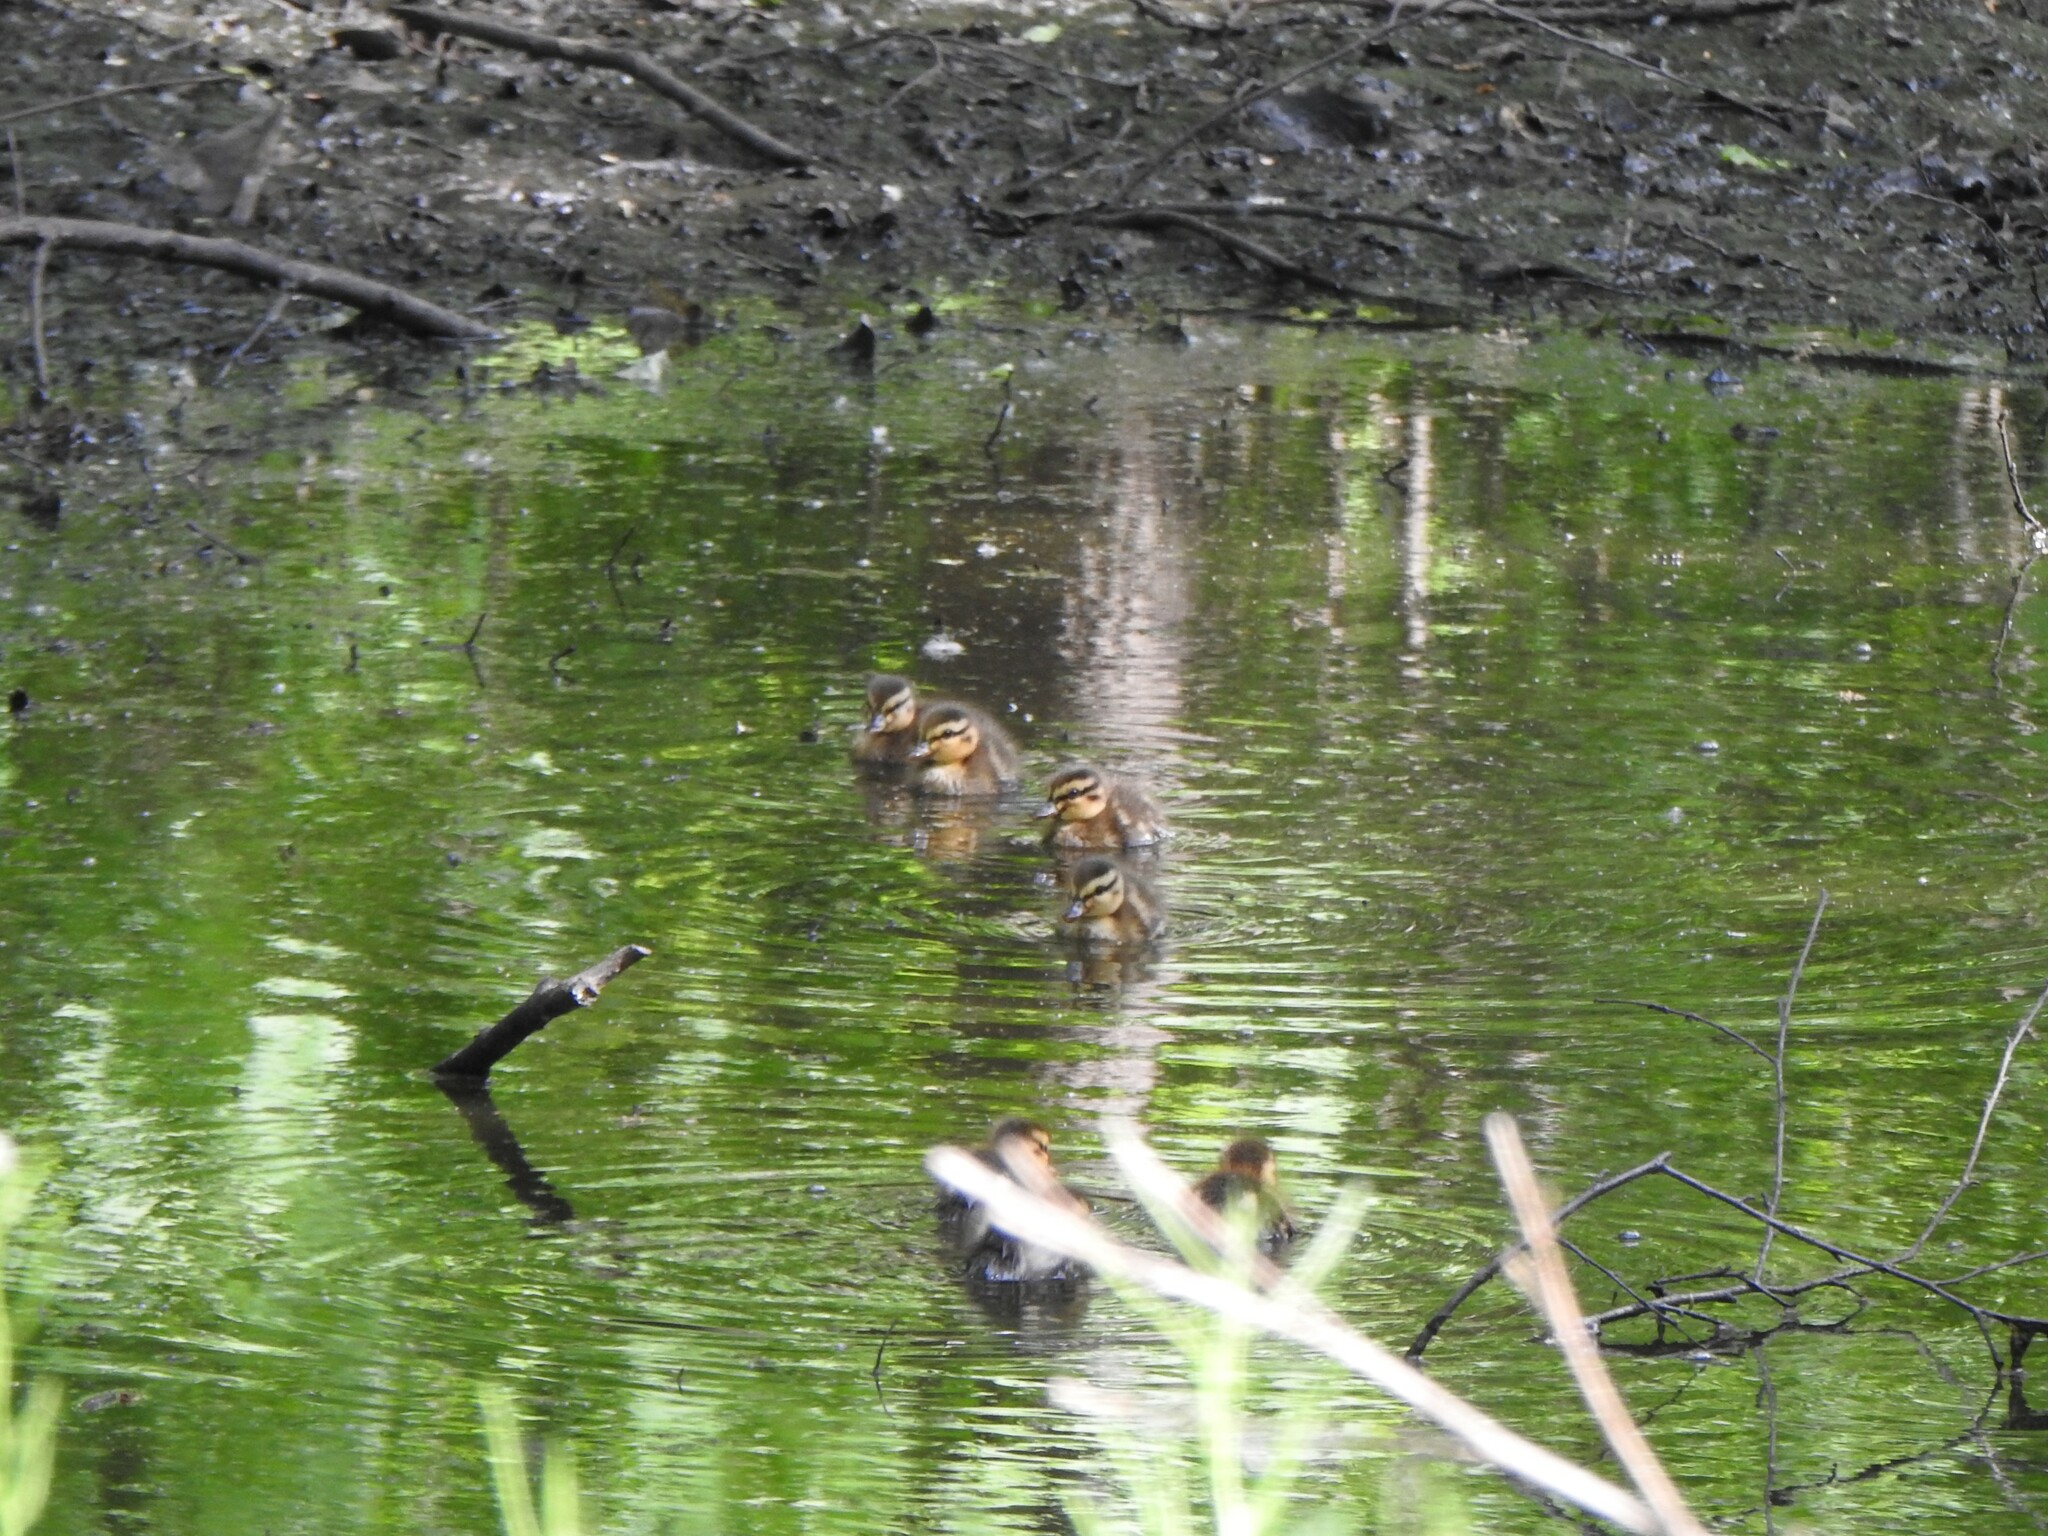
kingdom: Animalia
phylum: Chordata
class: Aves
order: Anseriformes
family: Anatidae
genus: Anas
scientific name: Anas platyrhynchos
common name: Mallard
